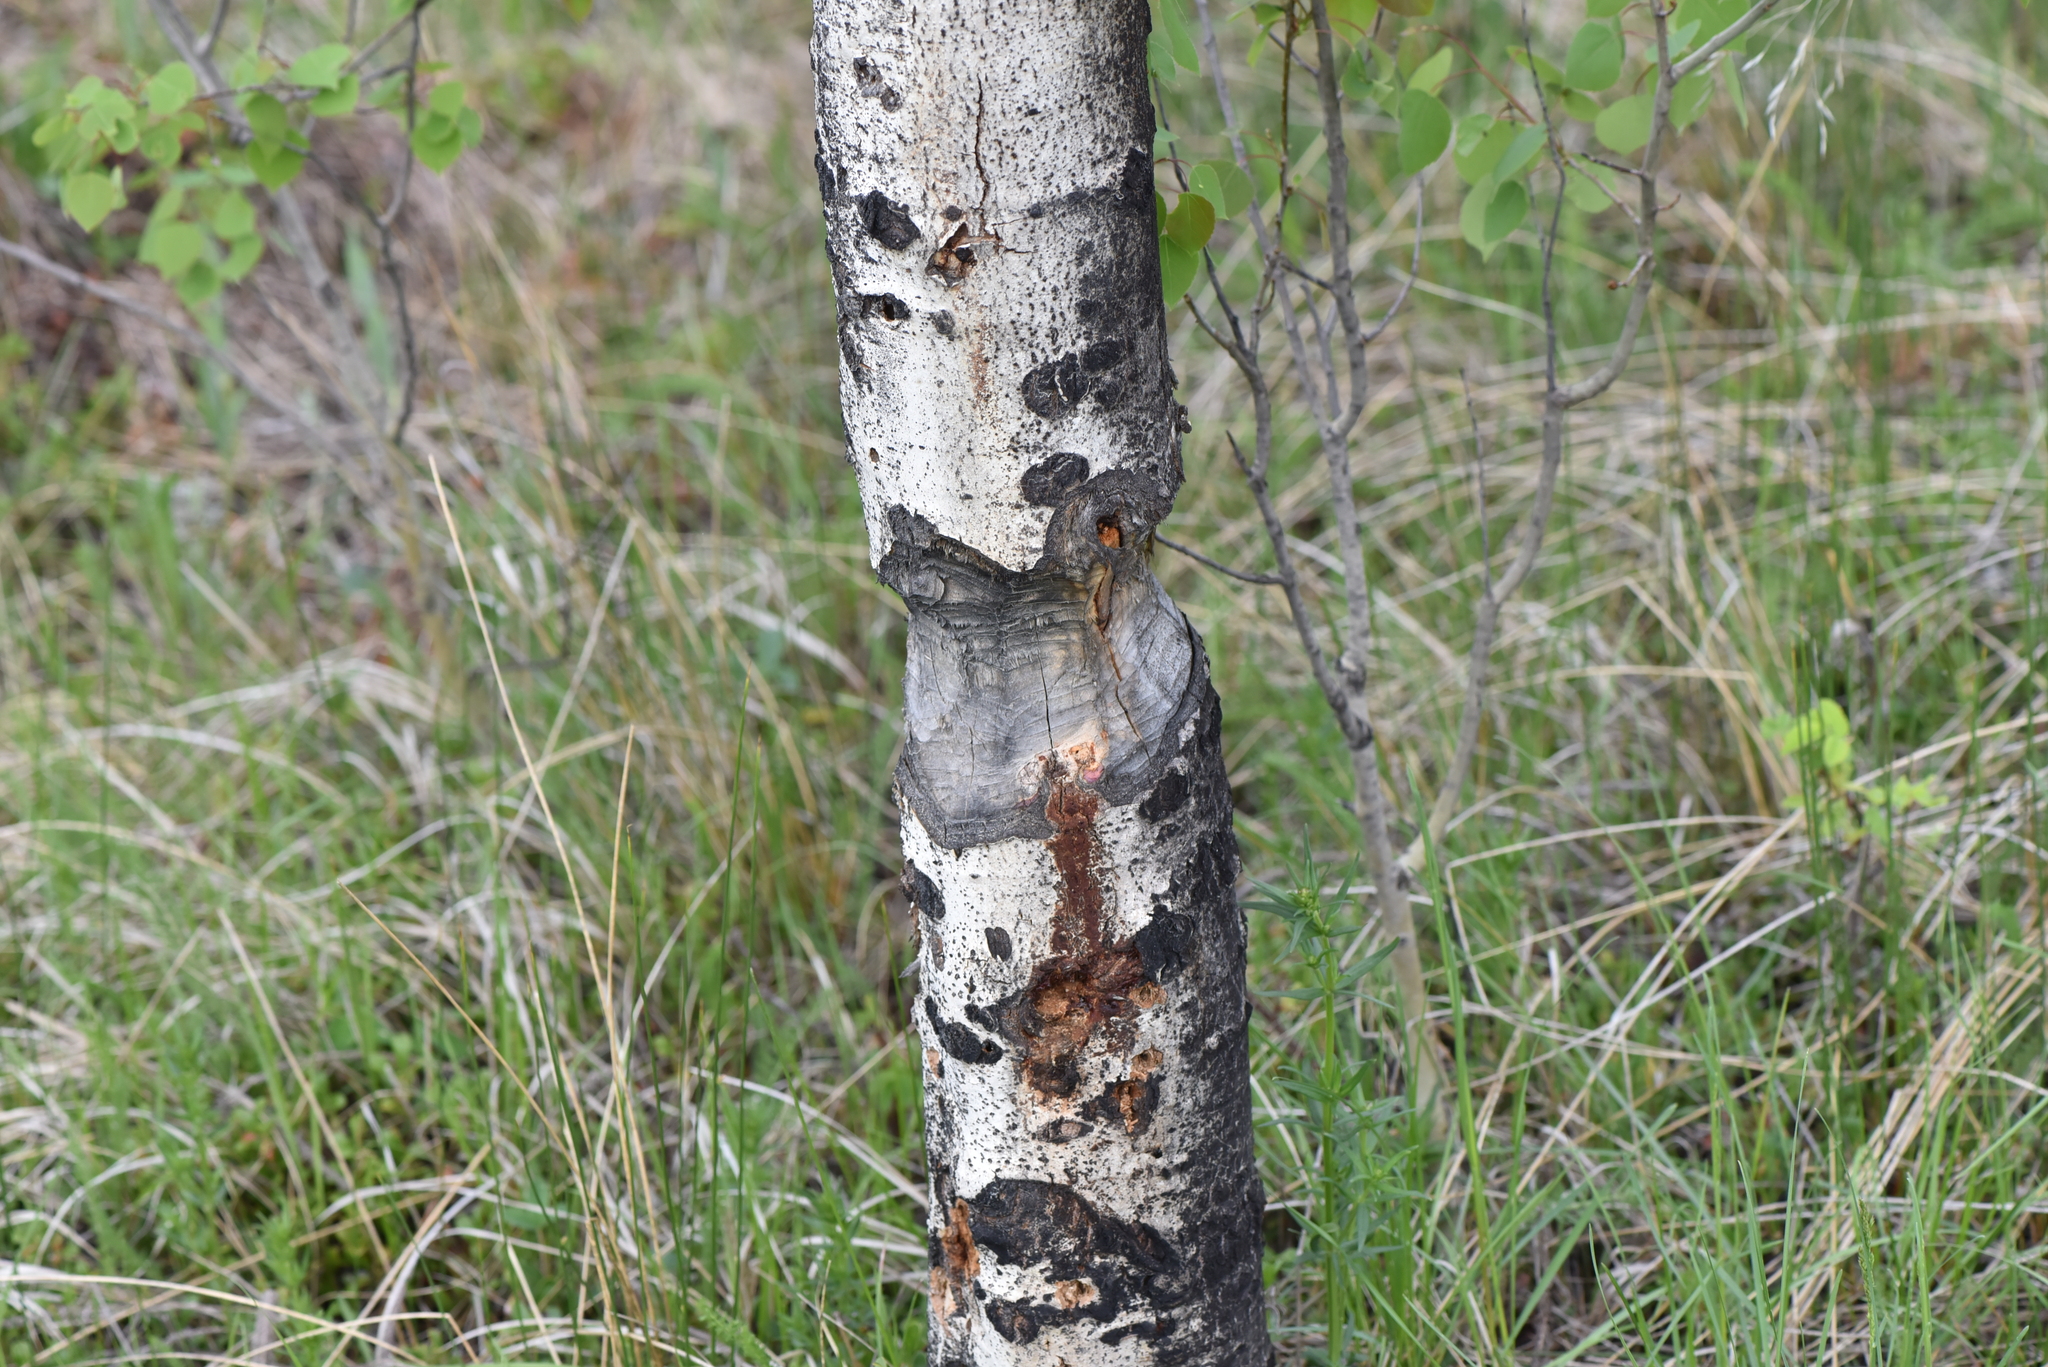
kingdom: Animalia
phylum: Chordata
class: Mammalia
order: Rodentia
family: Castoridae
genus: Castor
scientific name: Castor canadensis
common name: American beaver
